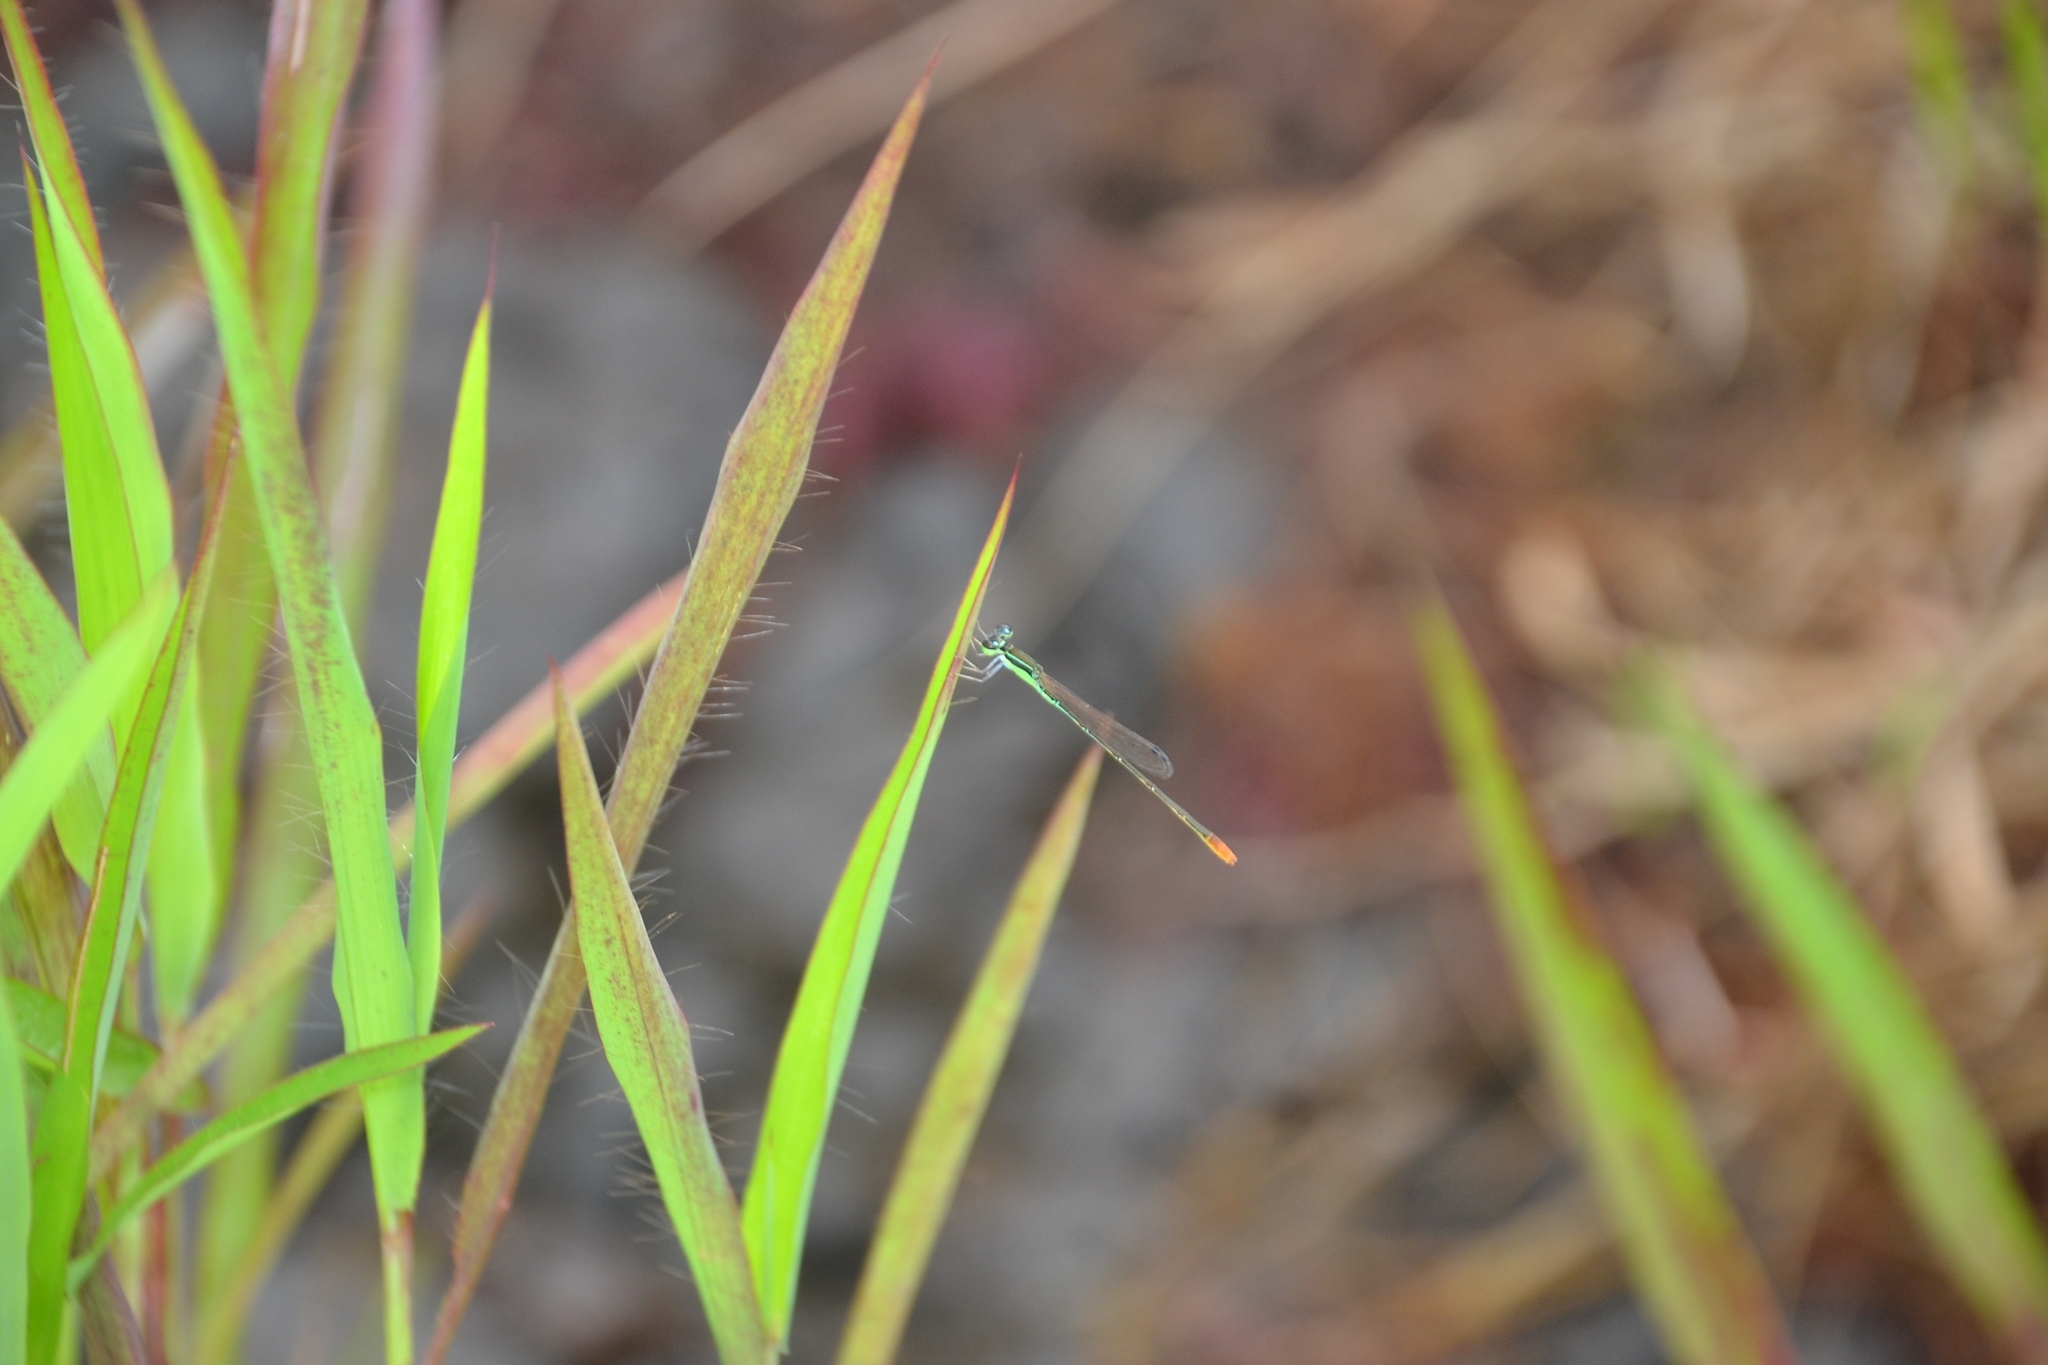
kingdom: Animalia
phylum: Arthropoda
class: Insecta
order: Odonata
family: Coenagrionidae
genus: Agriocnemis
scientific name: Agriocnemis pygmaea
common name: Pygmy wisp
